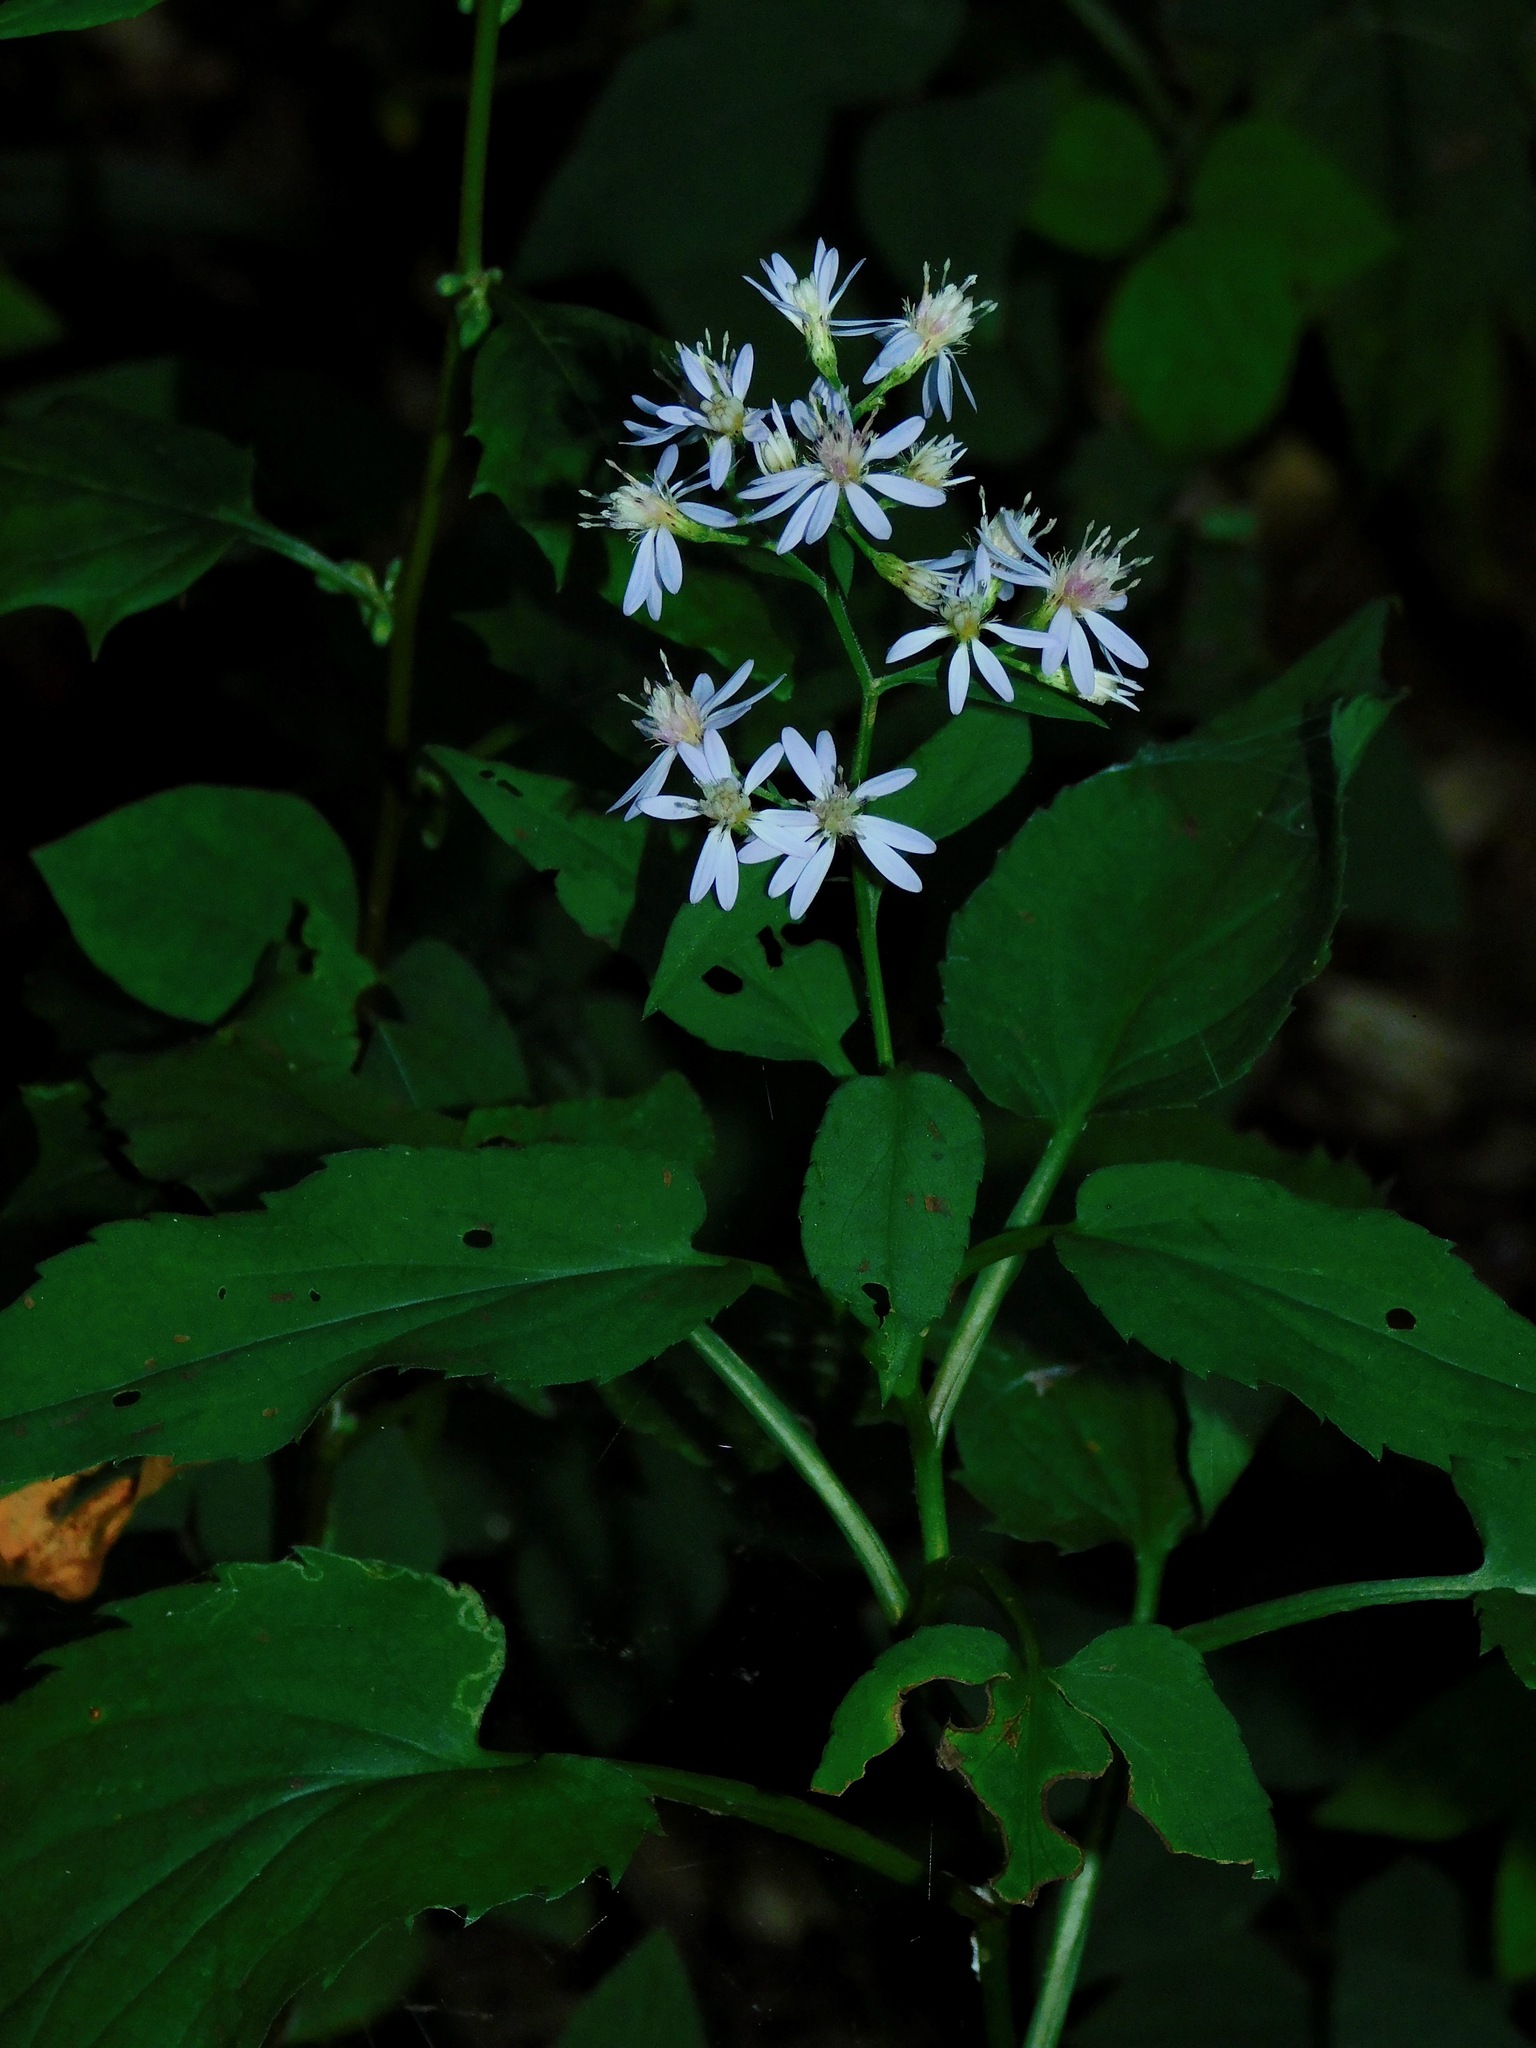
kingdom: Plantae
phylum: Tracheophyta
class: Magnoliopsida
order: Asterales
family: Asteraceae
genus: Symphyotrichum
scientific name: Symphyotrichum cordifolium
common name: Beeweed
